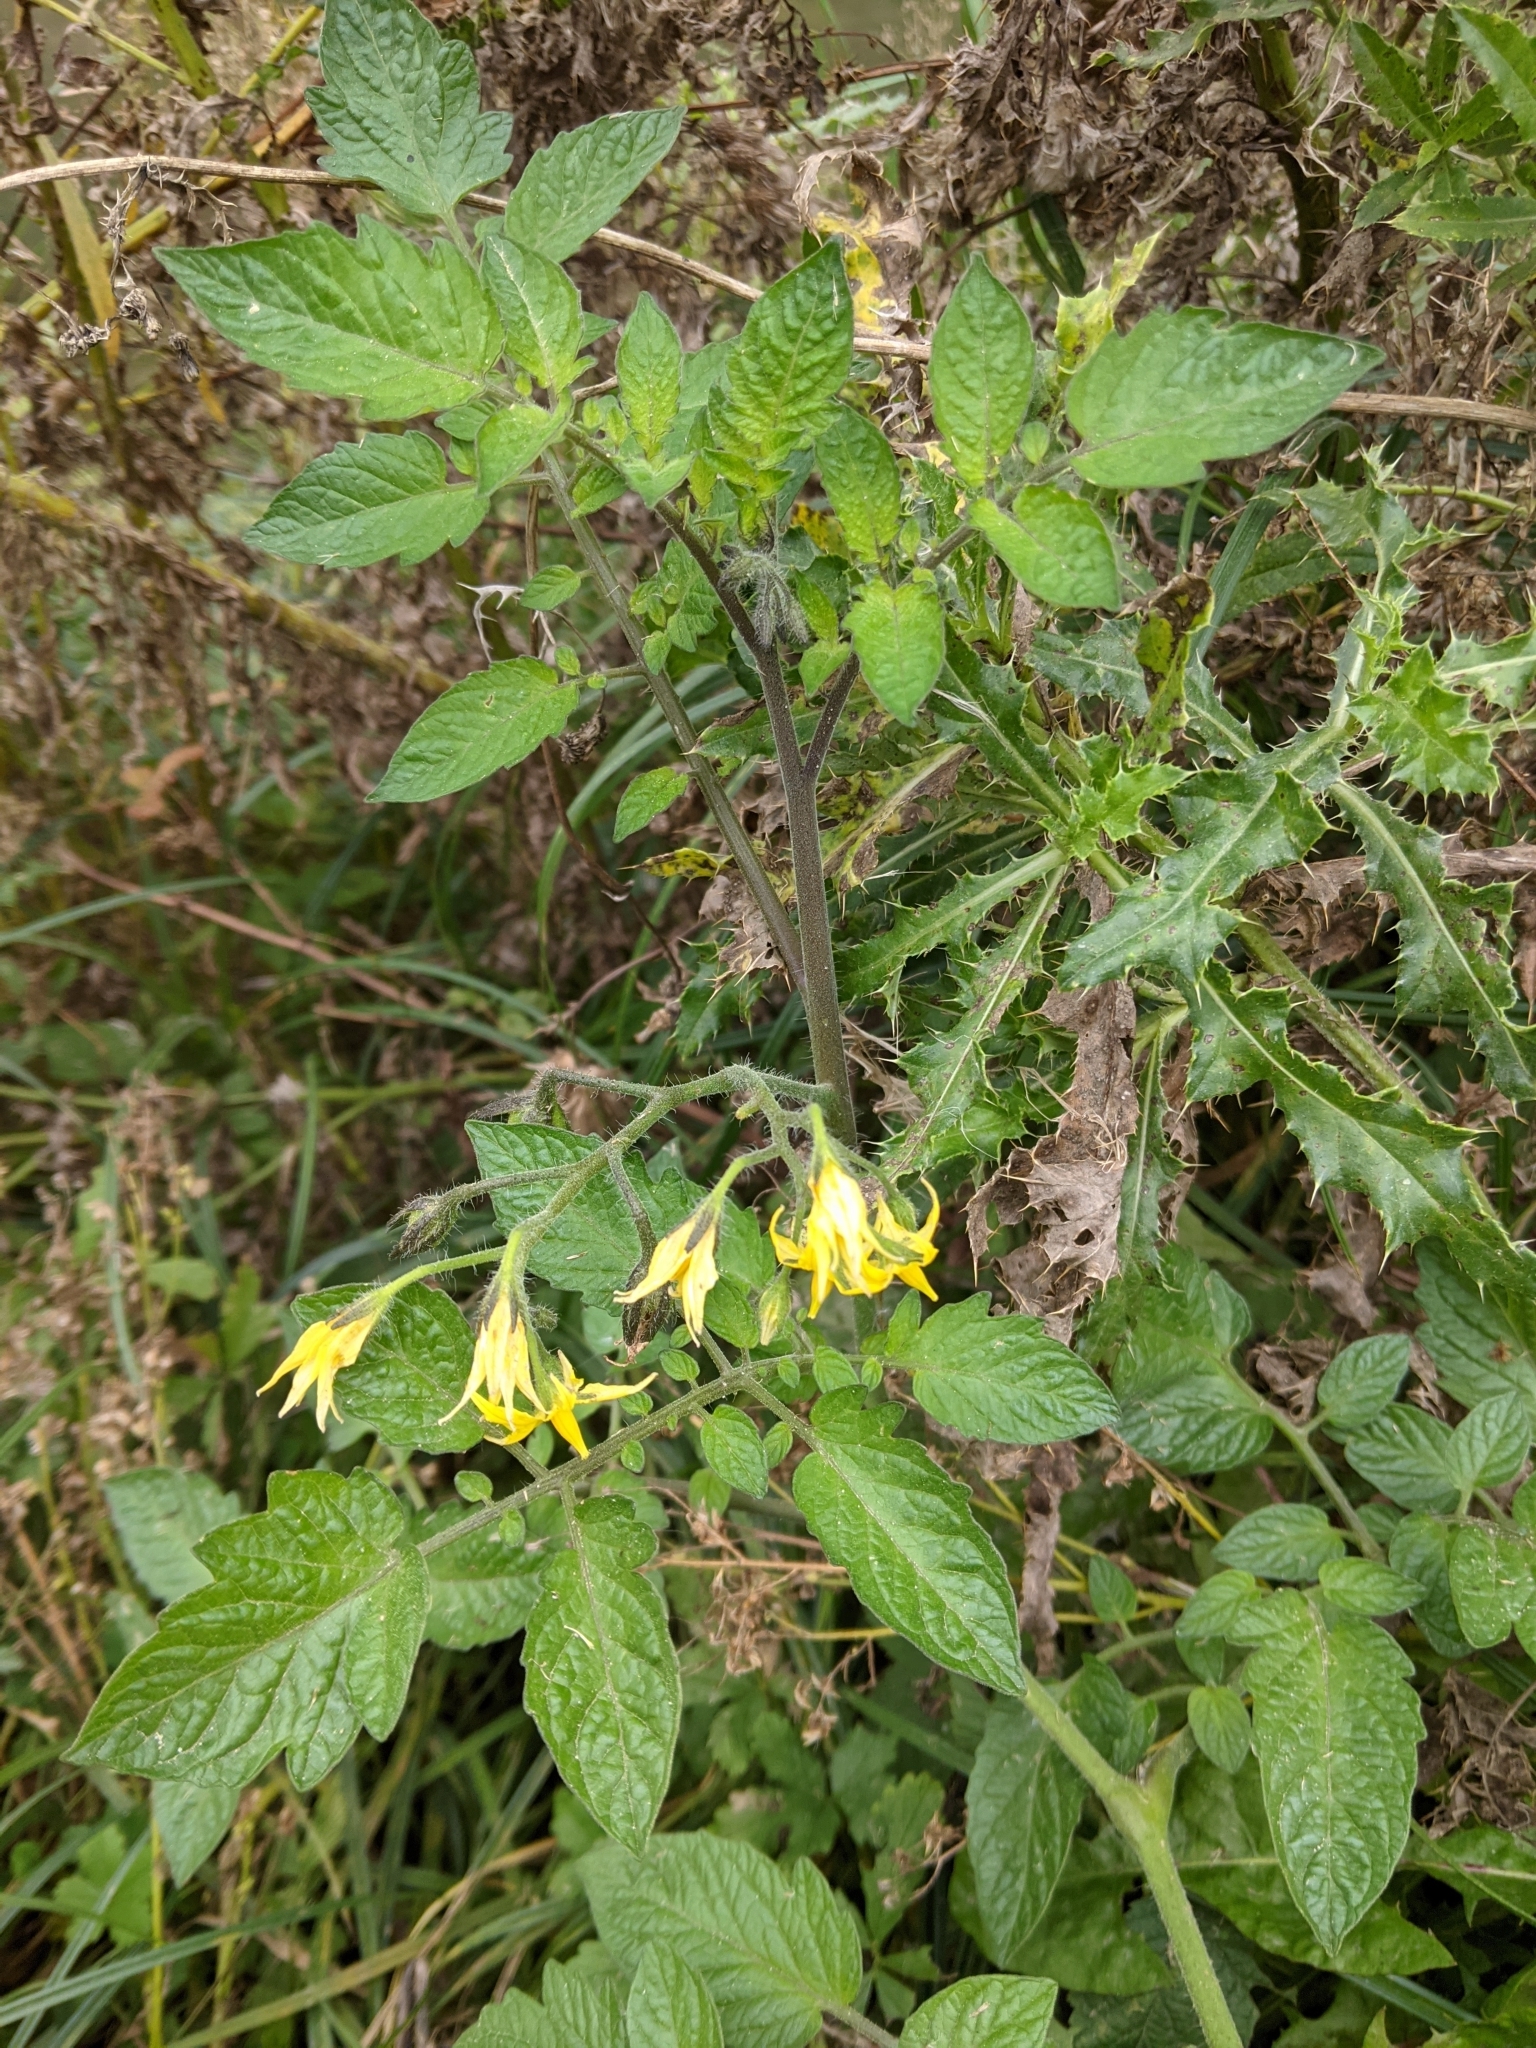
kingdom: Plantae
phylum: Tracheophyta
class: Magnoliopsida
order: Solanales
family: Solanaceae
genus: Solanum
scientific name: Solanum lycopersicum
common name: Garden tomato
